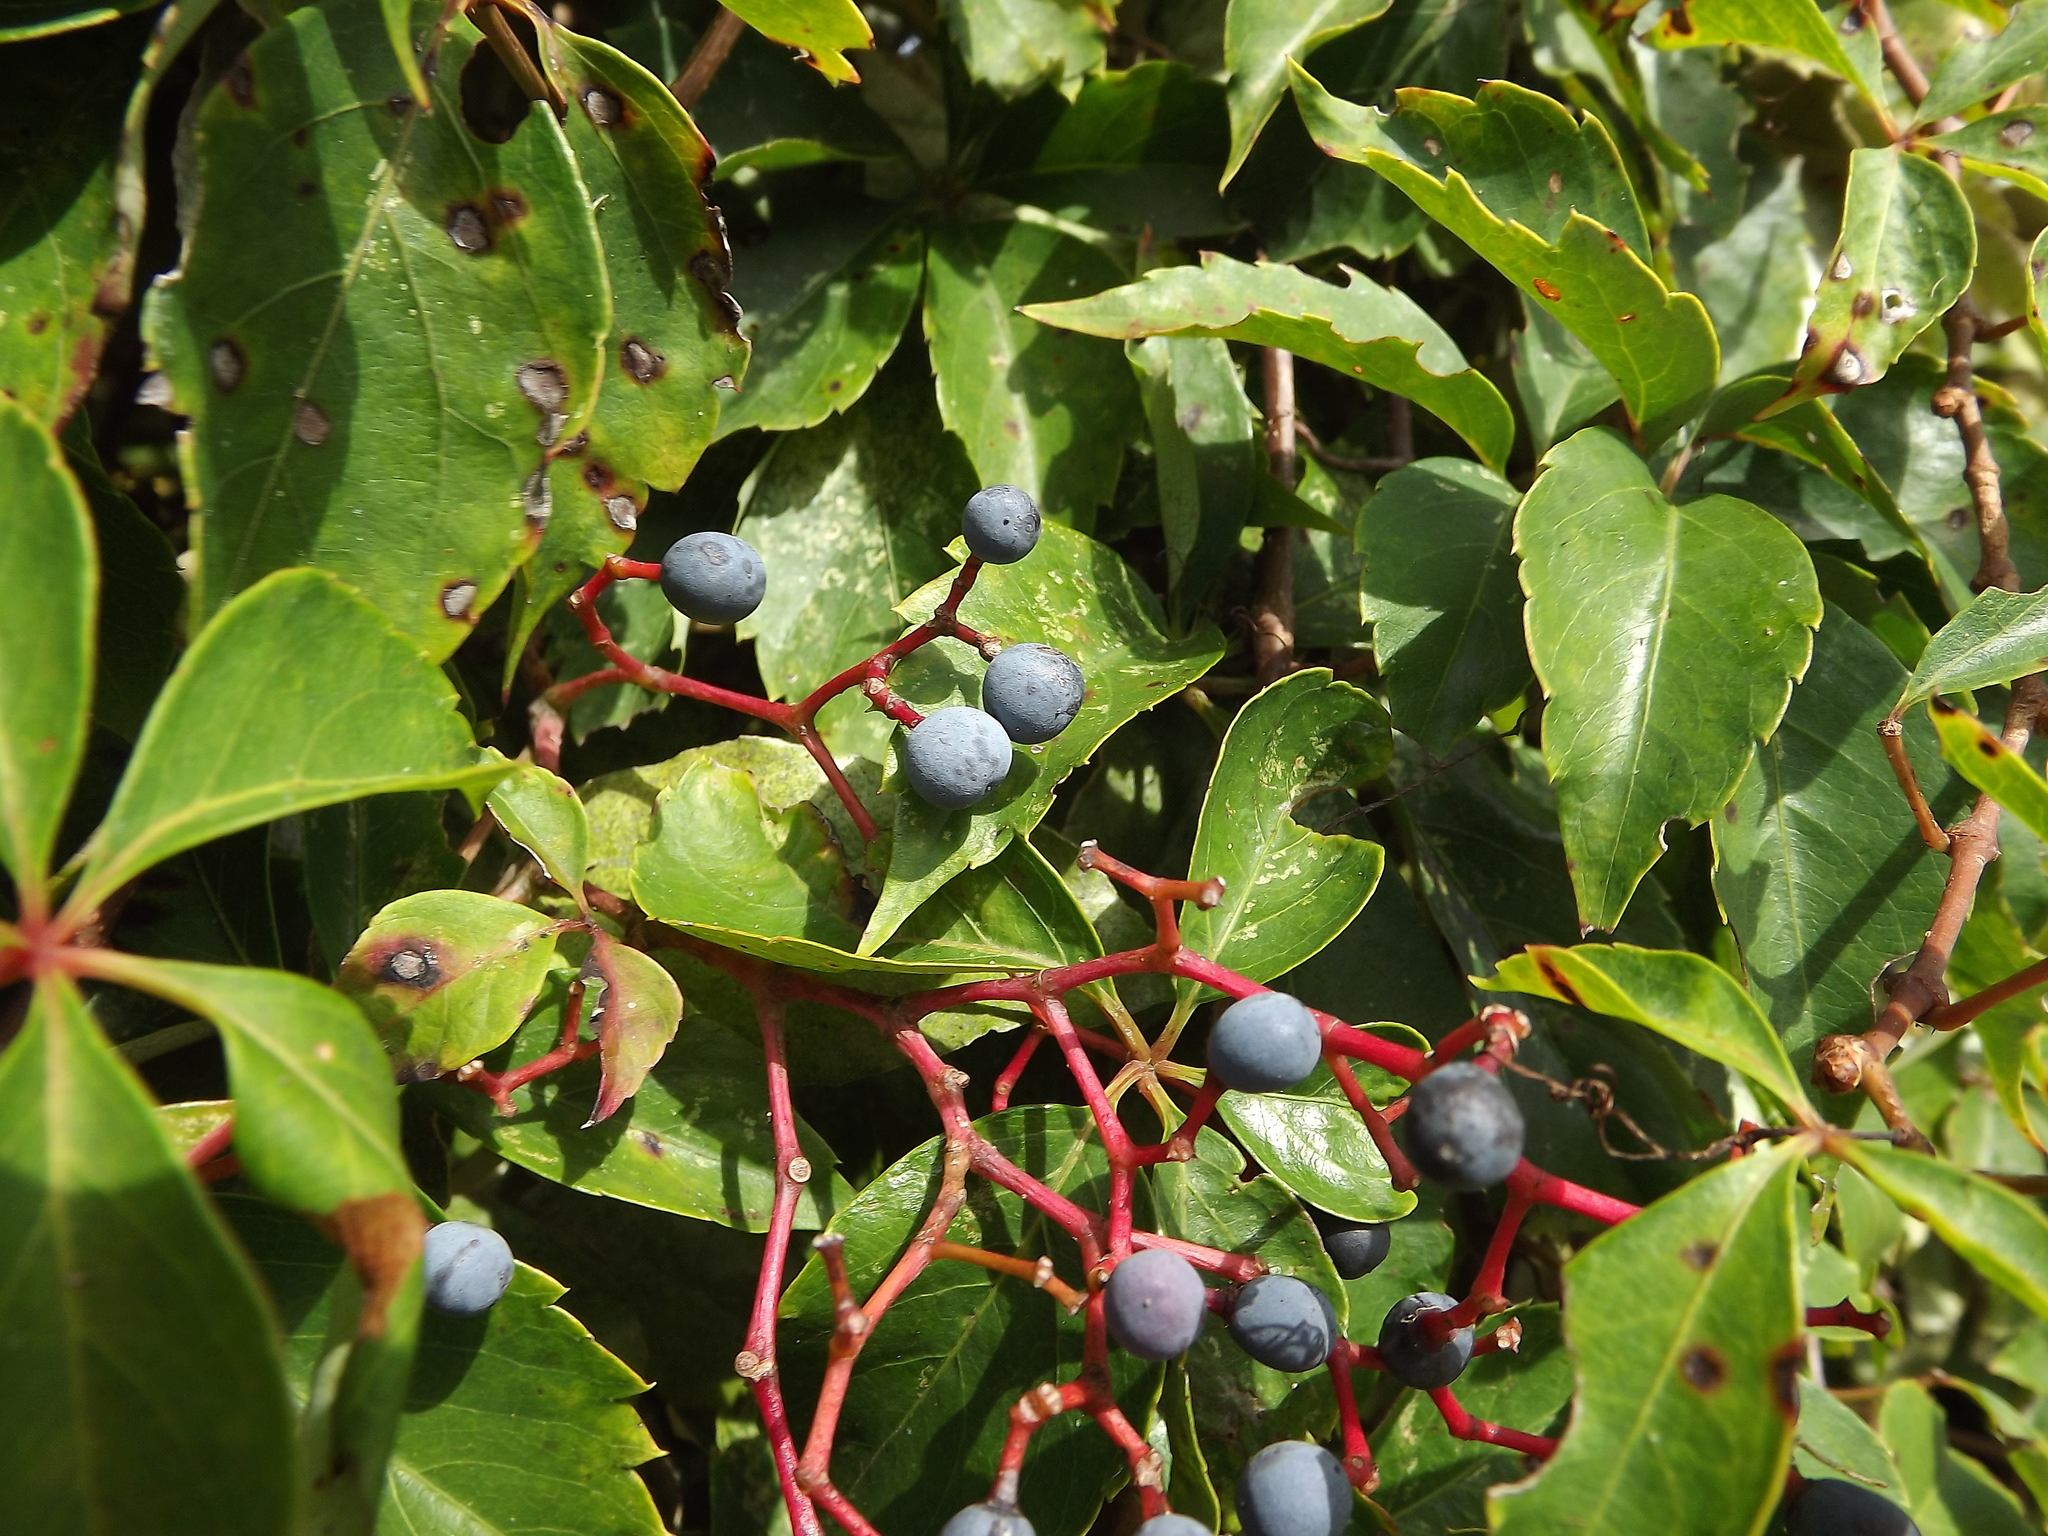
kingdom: Plantae
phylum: Tracheophyta
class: Magnoliopsida
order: Vitales
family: Vitaceae
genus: Parthenocissus
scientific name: Parthenocissus quinquefolia
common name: Virginia-creeper
